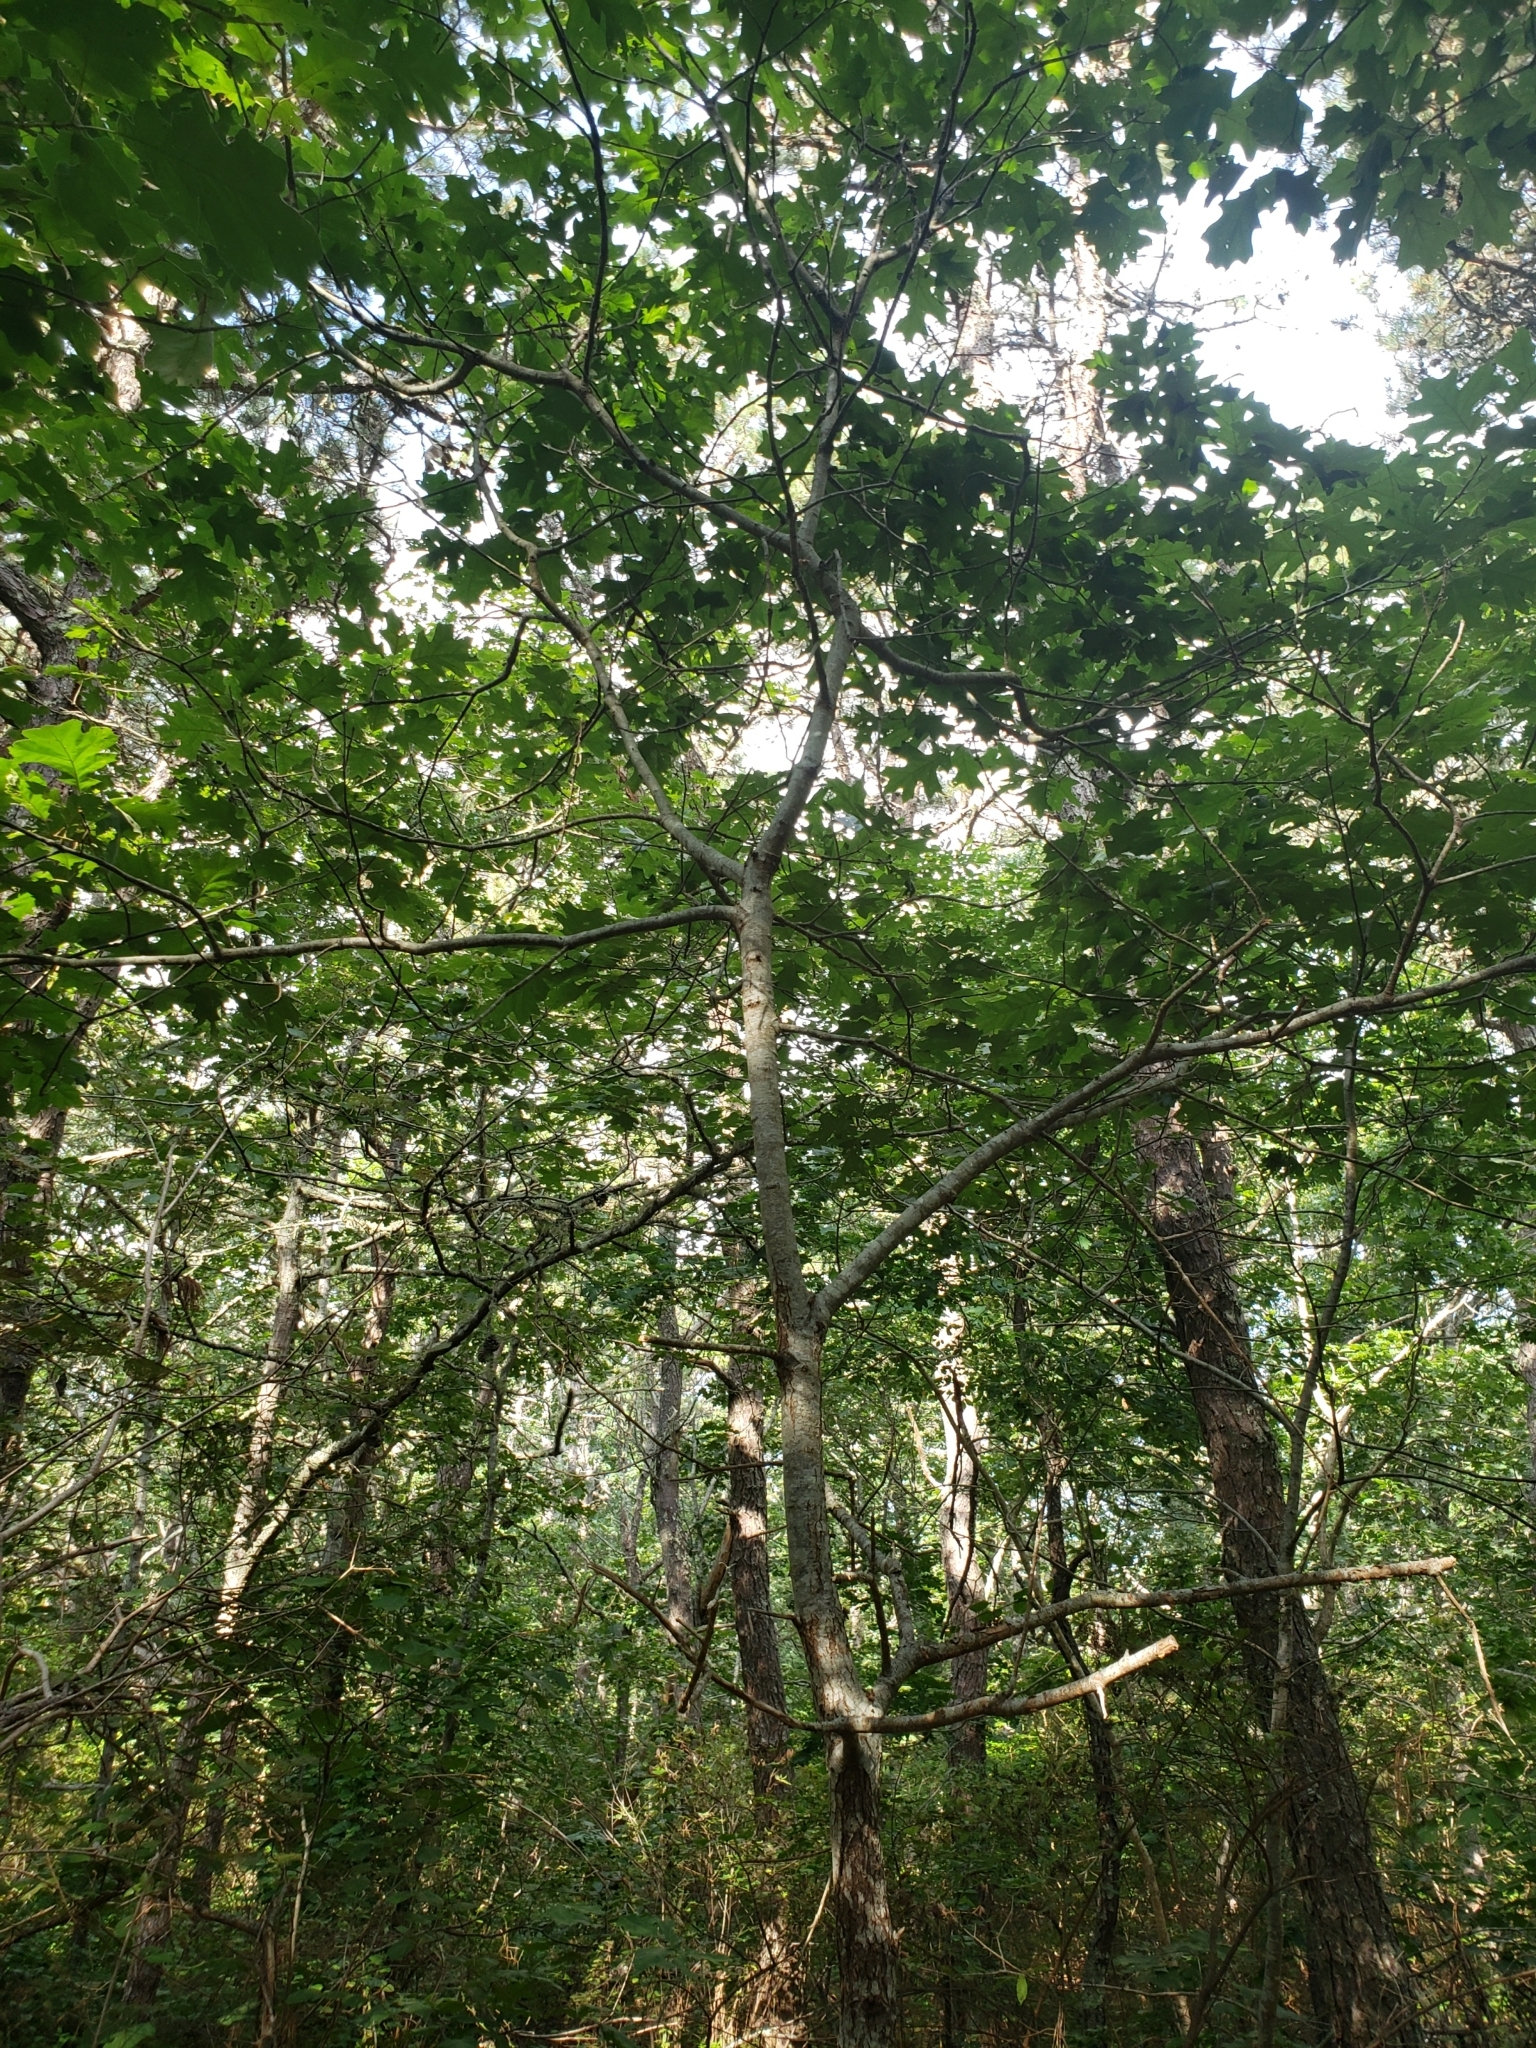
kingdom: Plantae
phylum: Tracheophyta
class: Magnoliopsida
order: Fagales
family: Fagaceae
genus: Quercus
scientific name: Quercus velutina
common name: Black oak
